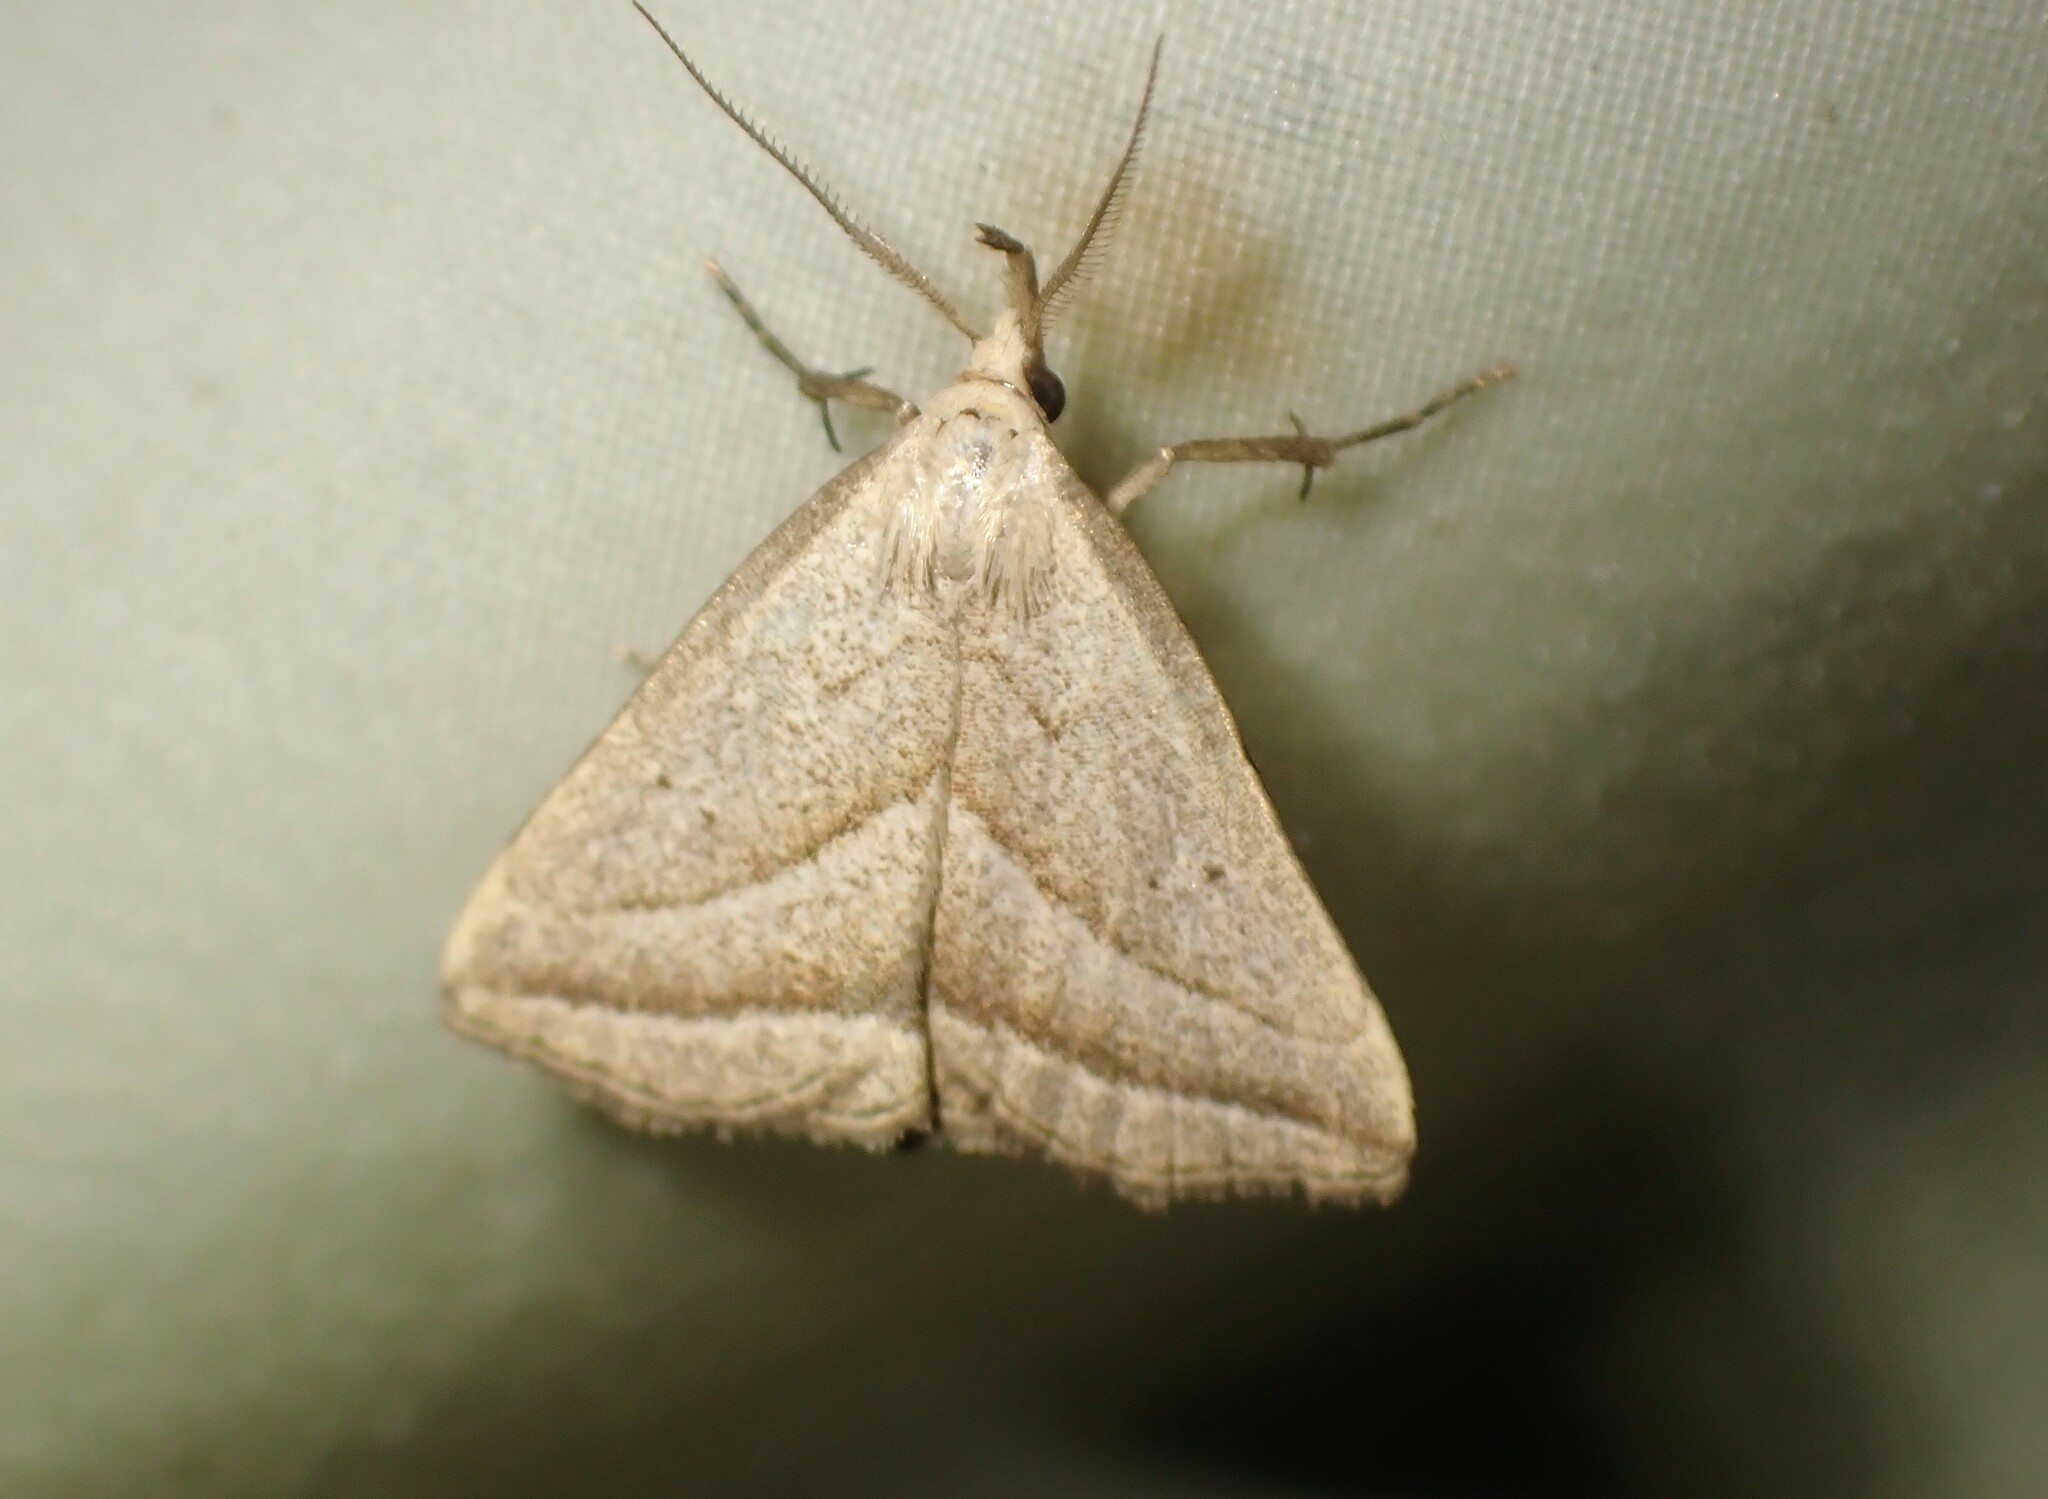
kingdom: Animalia
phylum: Arthropoda
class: Insecta
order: Lepidoptera
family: Erebidae
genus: Macrochilo
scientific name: Macrochilo absorptalis
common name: Slant-lined owlet
